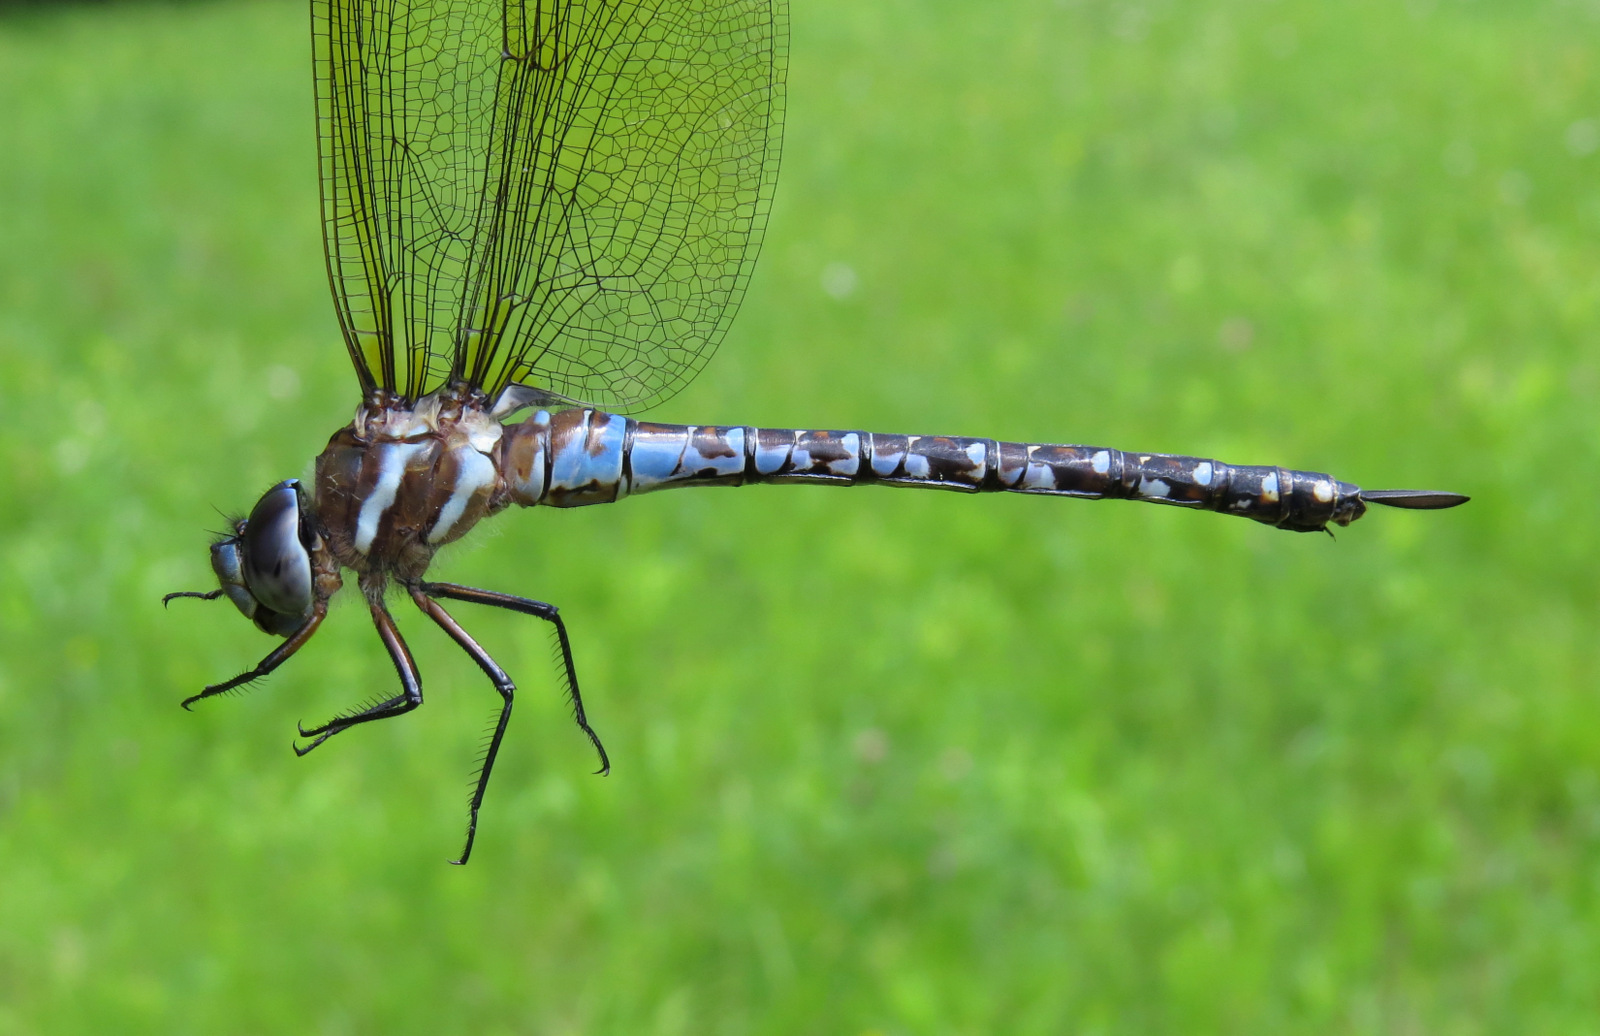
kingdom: Animalia
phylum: Arthropoda
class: Insecta
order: Odonata
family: Aeshnidae
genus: Rhionaeschna
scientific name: Rhionaeschna mutata
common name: Spatterdock darner
